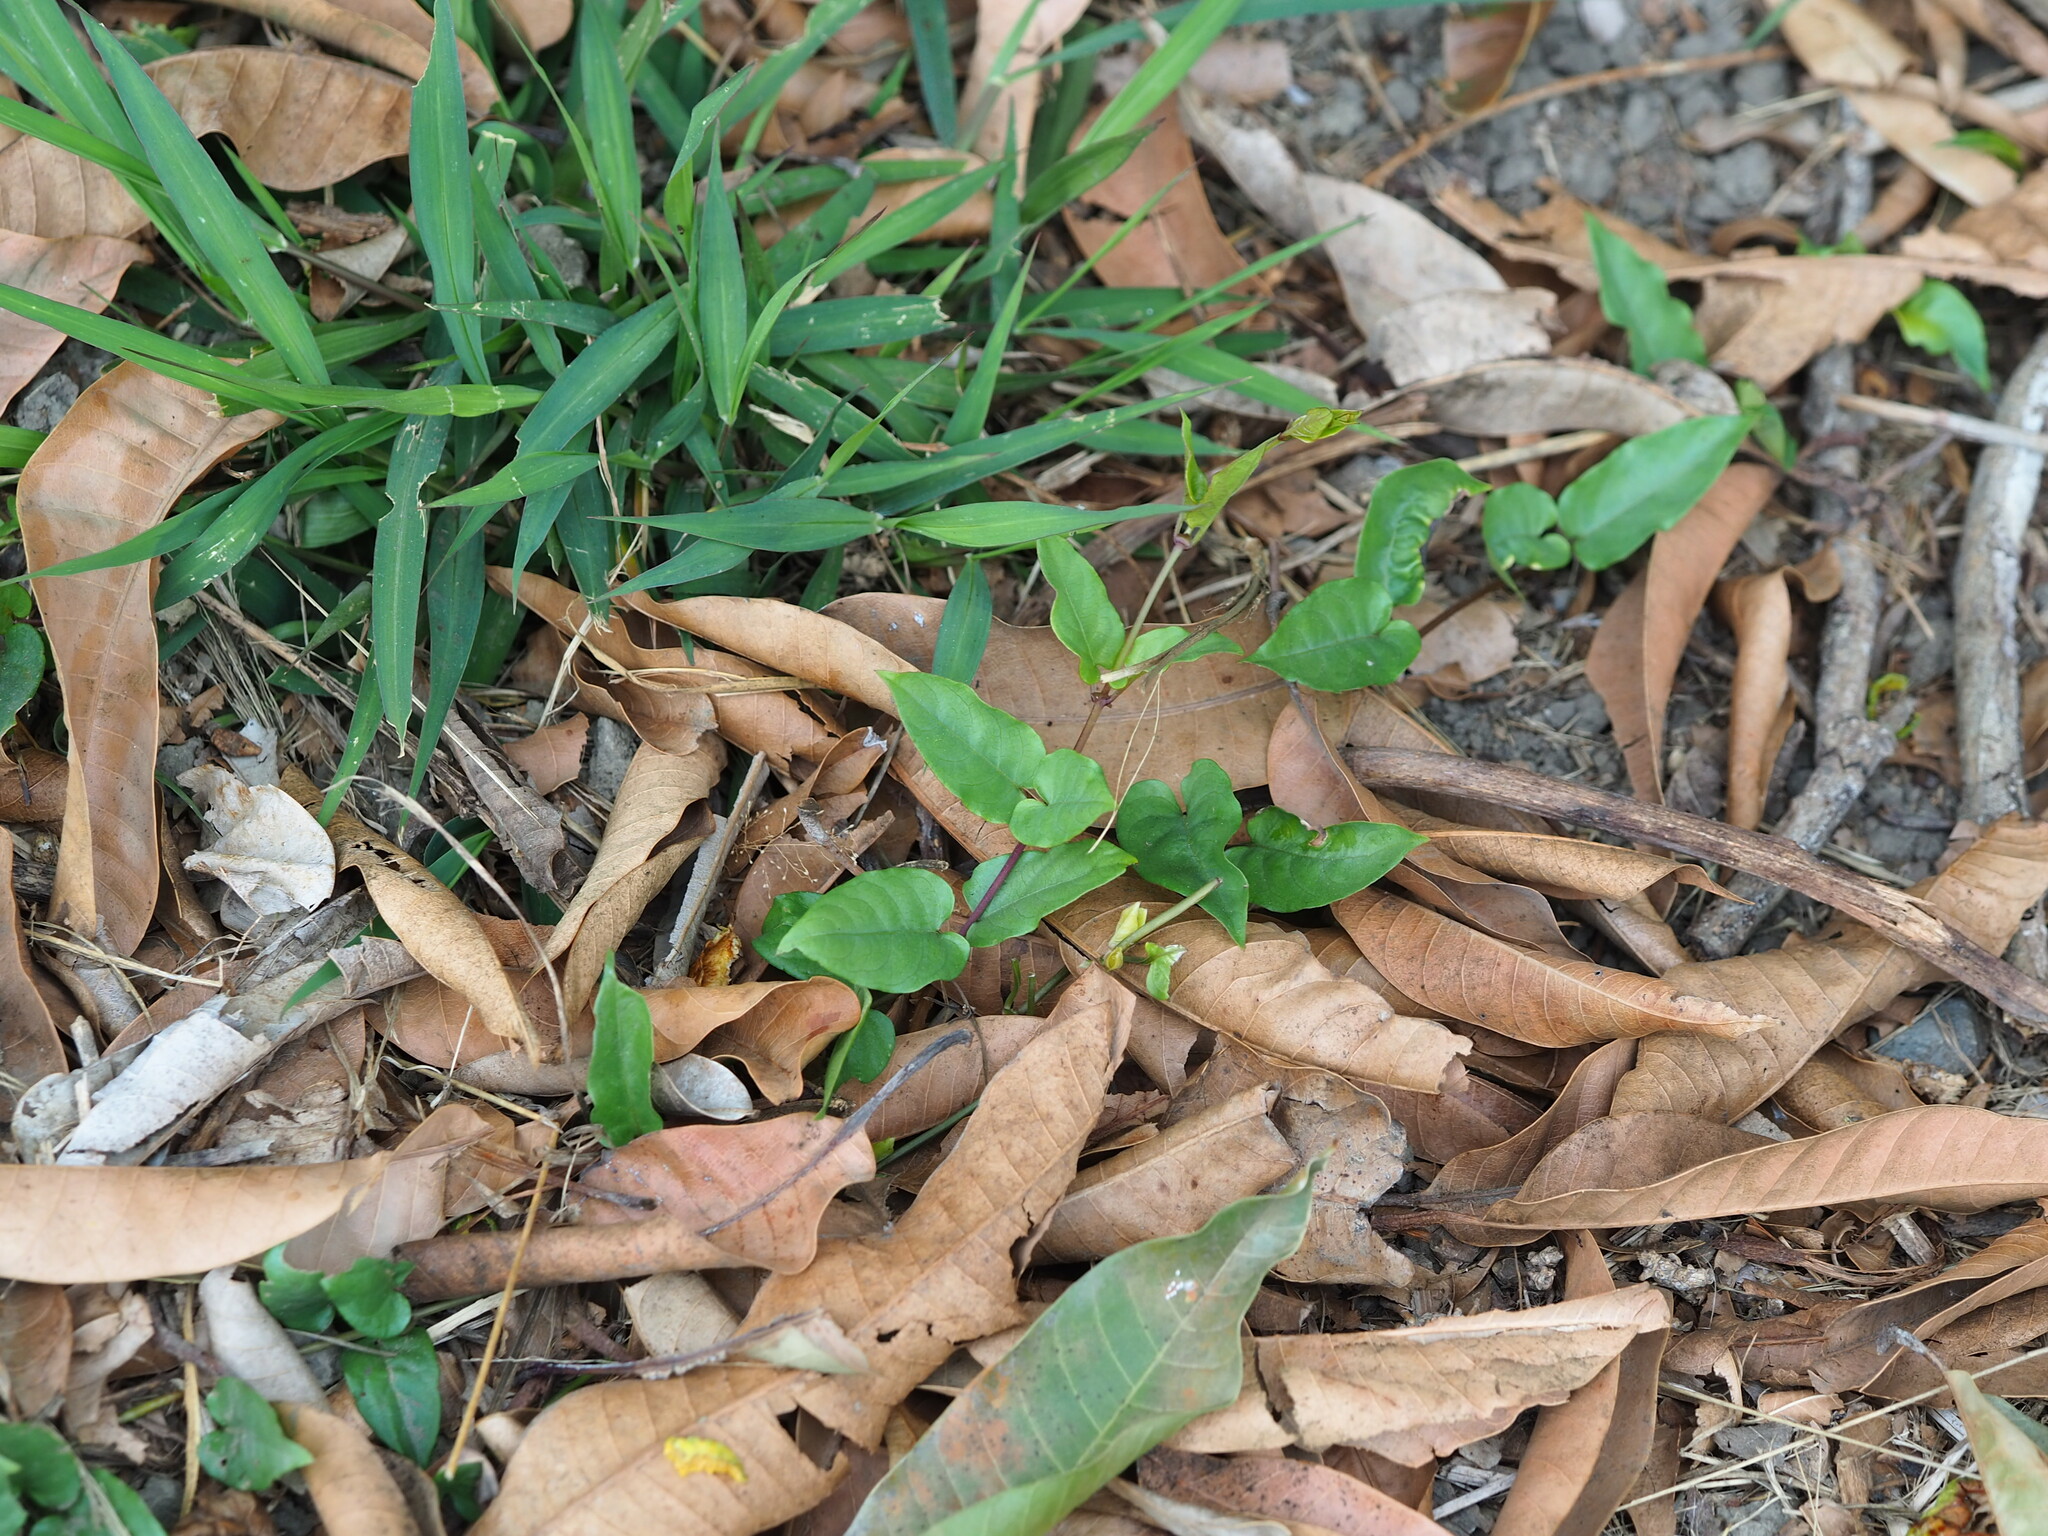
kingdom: Plantae
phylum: Tracheophyta
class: Magnoliopsida
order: Gentianales
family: Rubiaceae
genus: Paederia
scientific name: Paederia foetida
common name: Stinkvine
